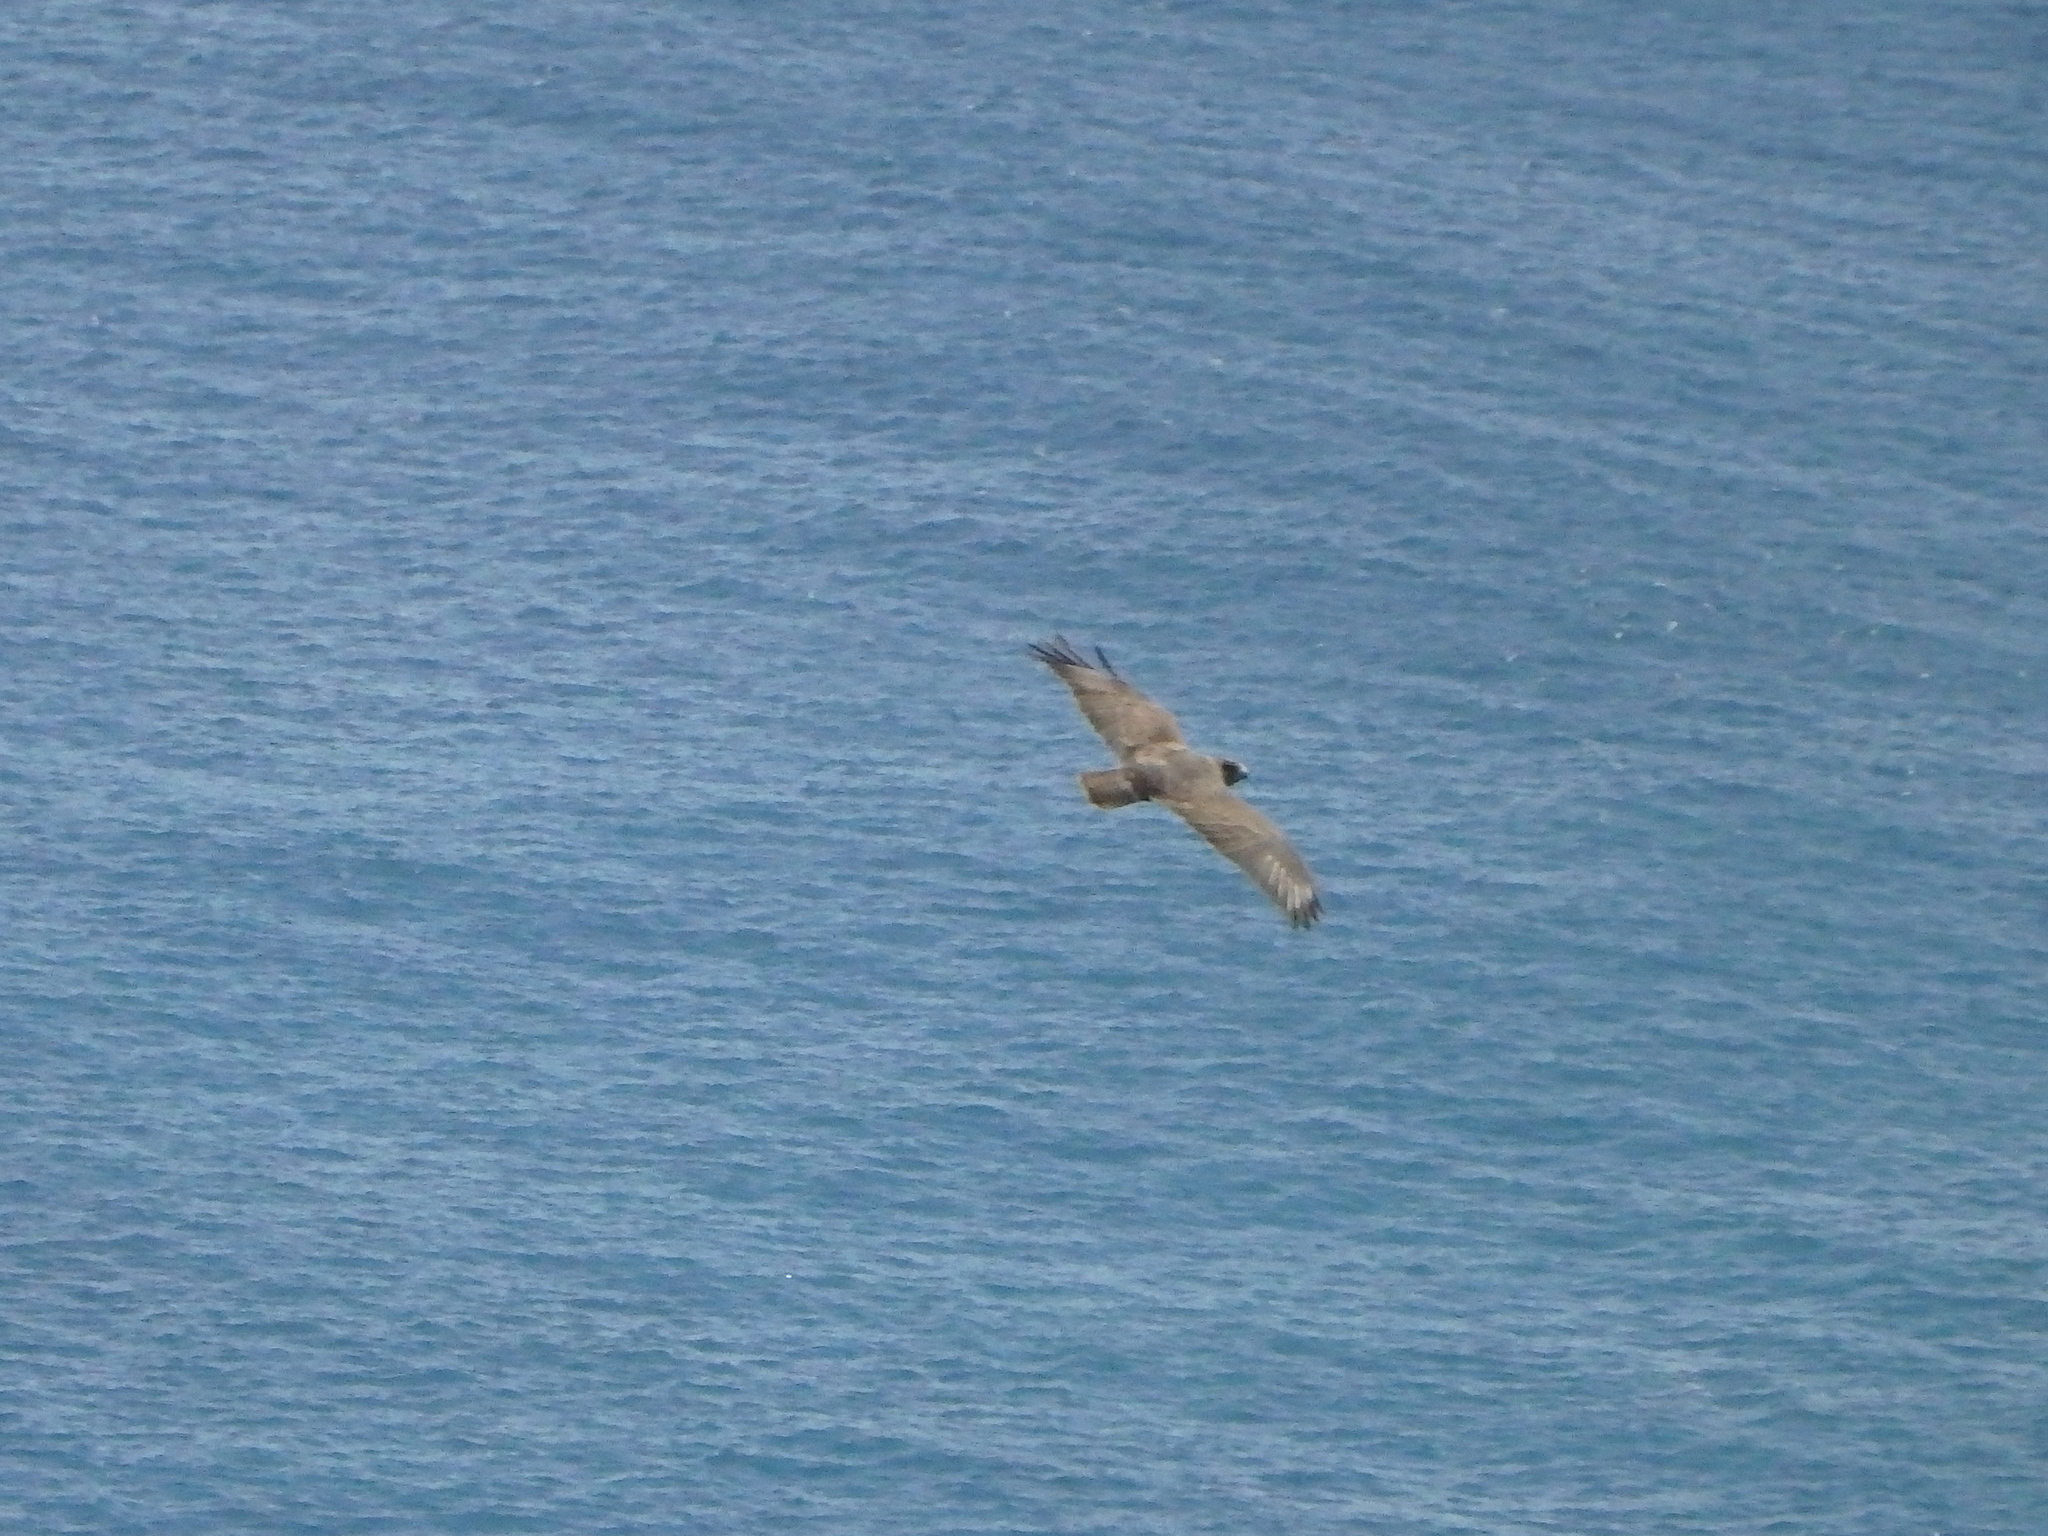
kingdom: Animalia
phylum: Chordata
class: Aves
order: Accipitriformes
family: Accipitridae
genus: Buteo
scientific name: Buteo buteo
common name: Common buzzard
